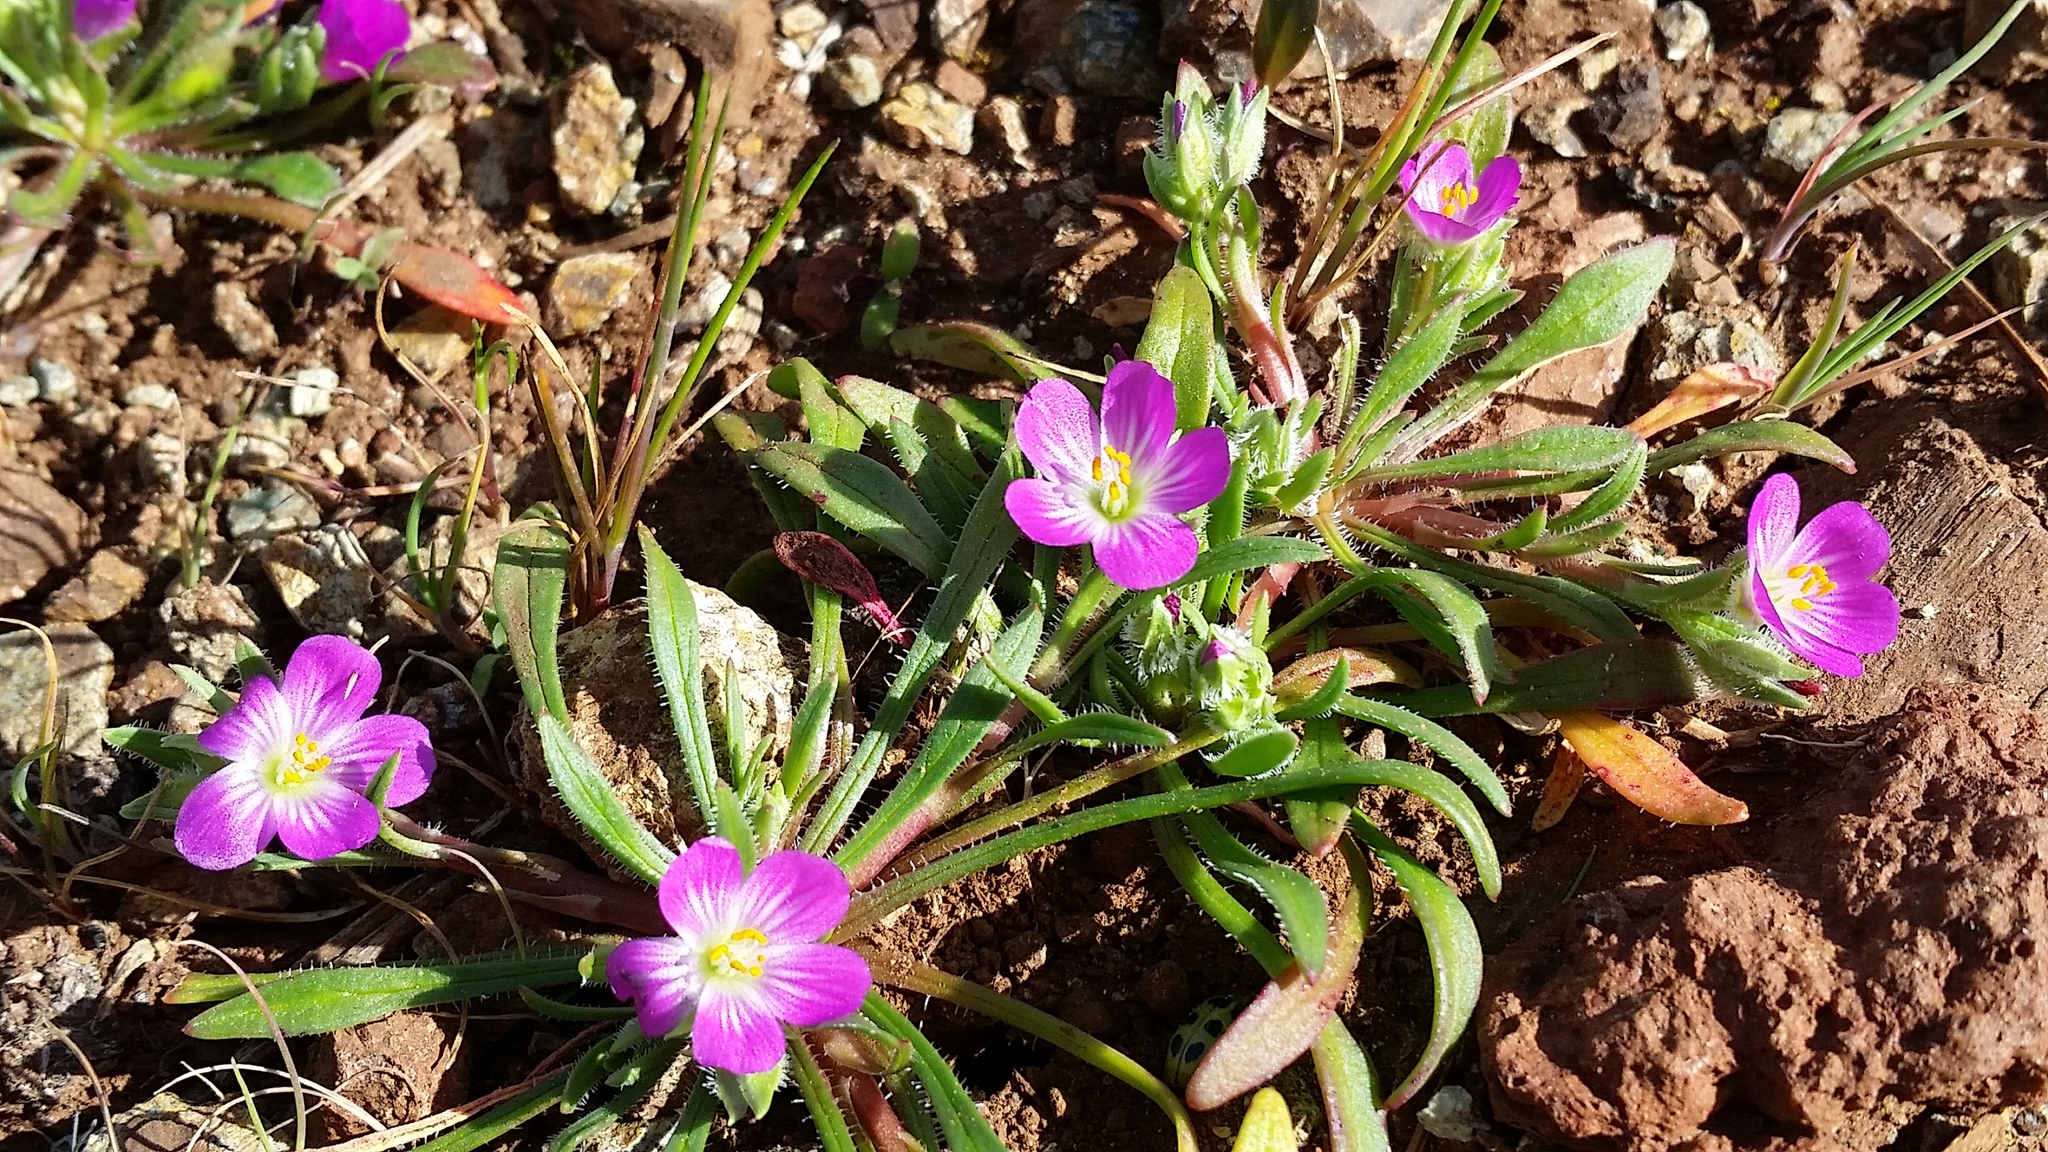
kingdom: Plantae
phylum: Tracheophyta
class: Magnoliopsida
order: Caryophyllales
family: Montiaceae
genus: Calandrinia
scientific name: Calandrinia menziesii
